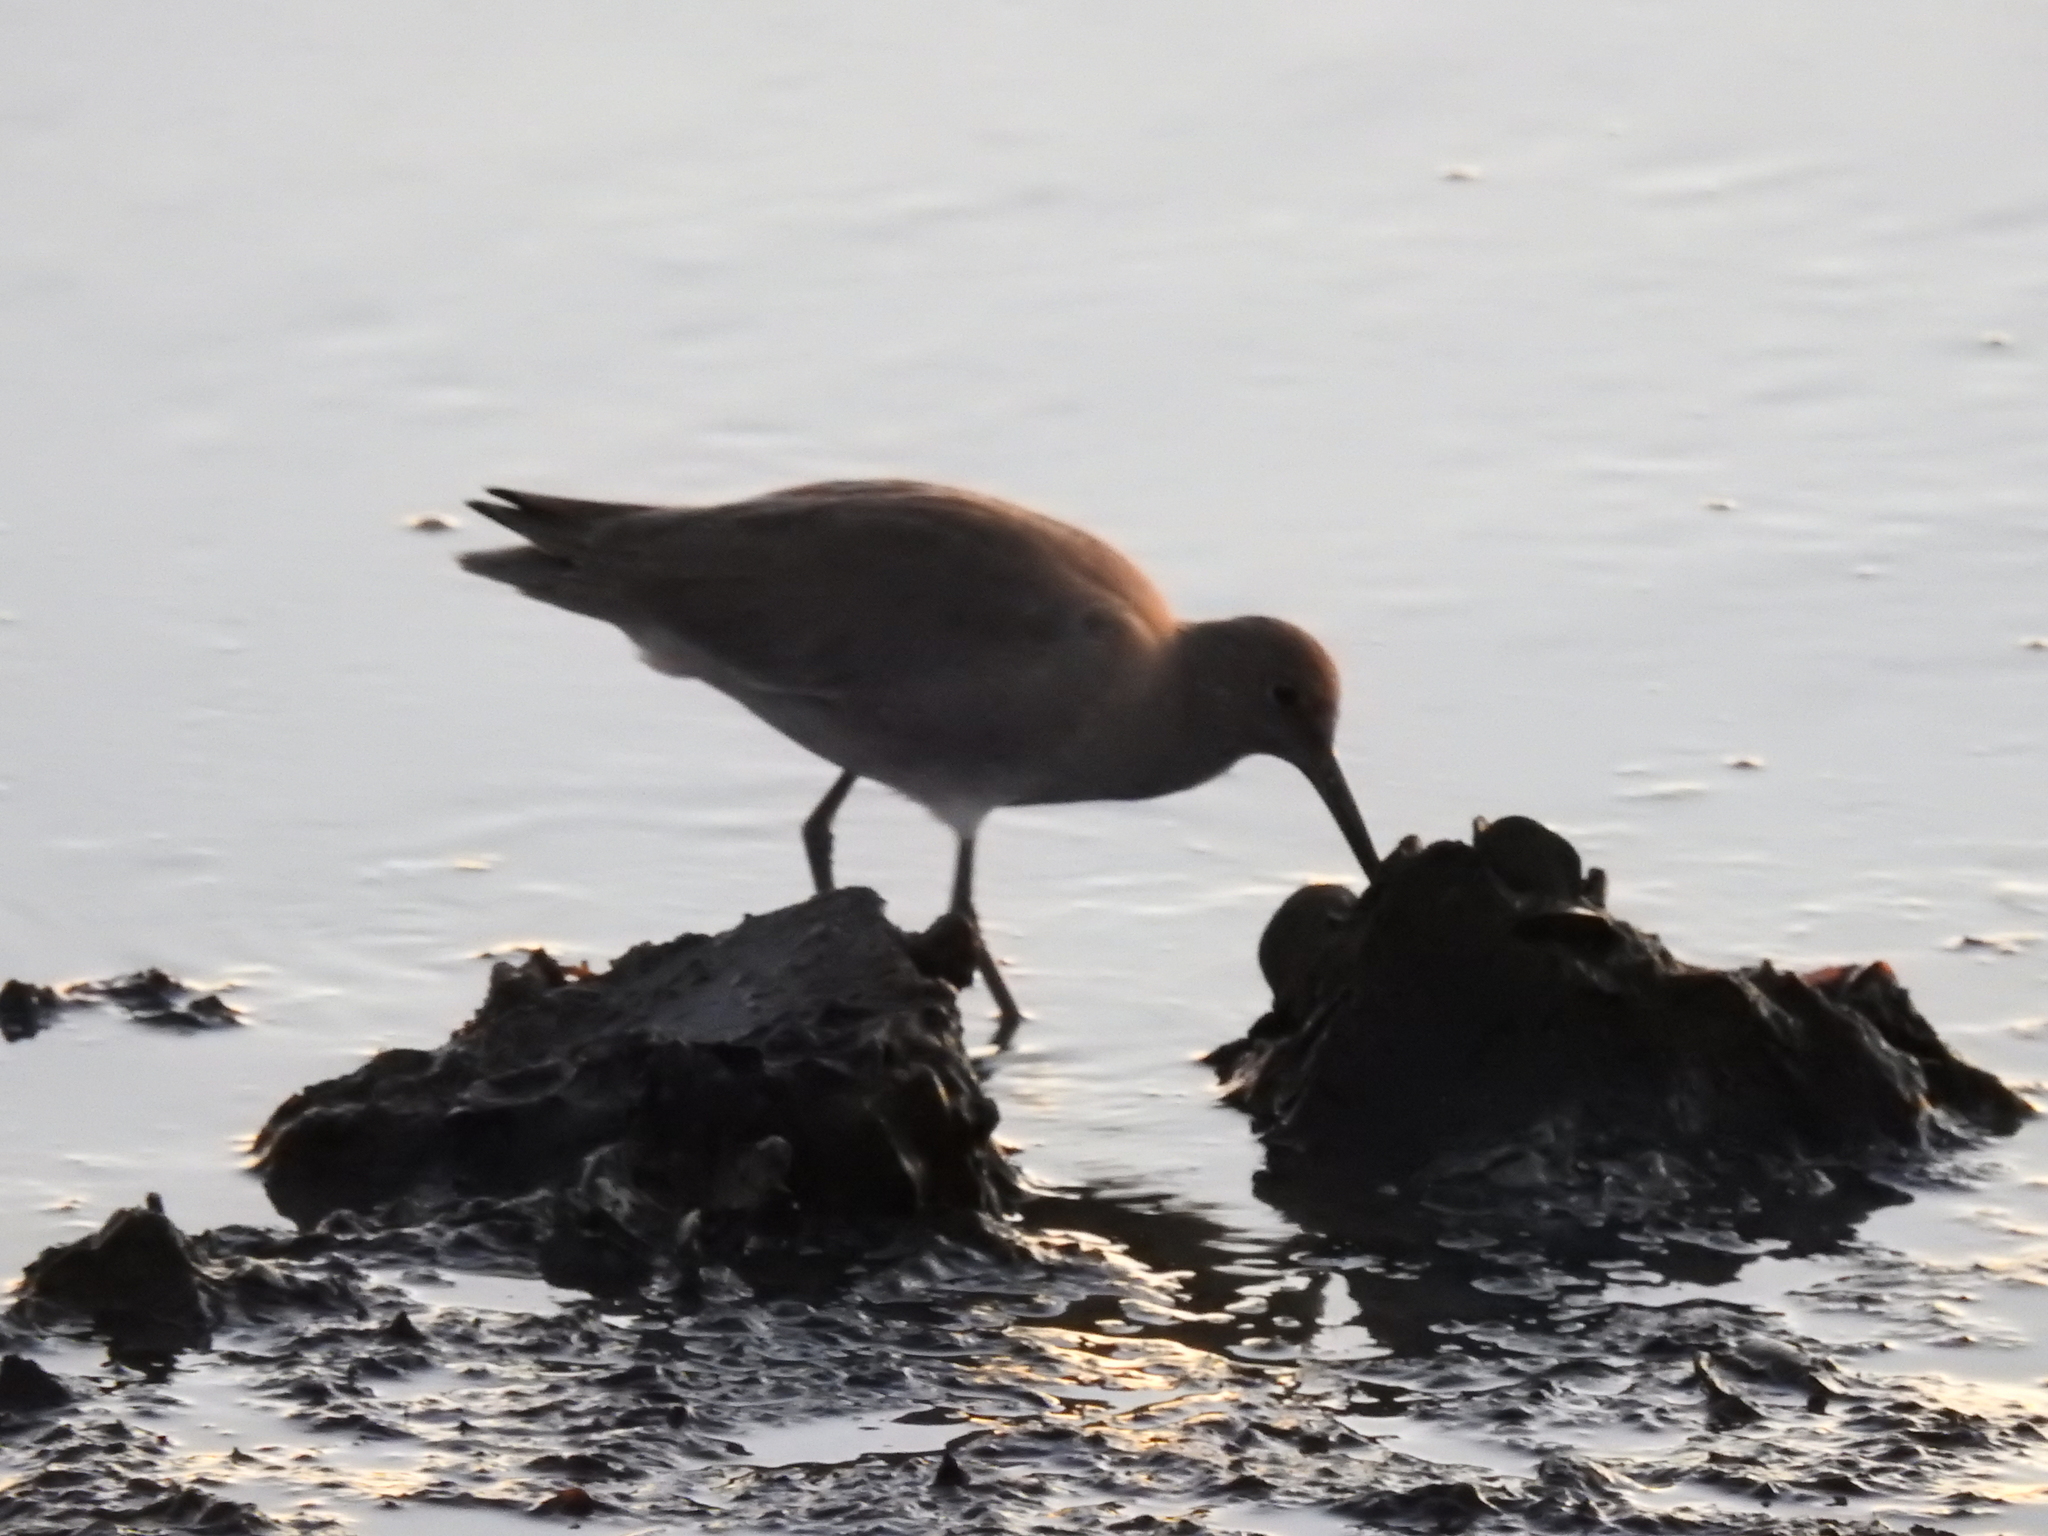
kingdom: Animalia
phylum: Chordata
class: Aves
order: Charadriiformes
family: Scolopacidae
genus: Tringa
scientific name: Tringa semipalmata
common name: Willet
